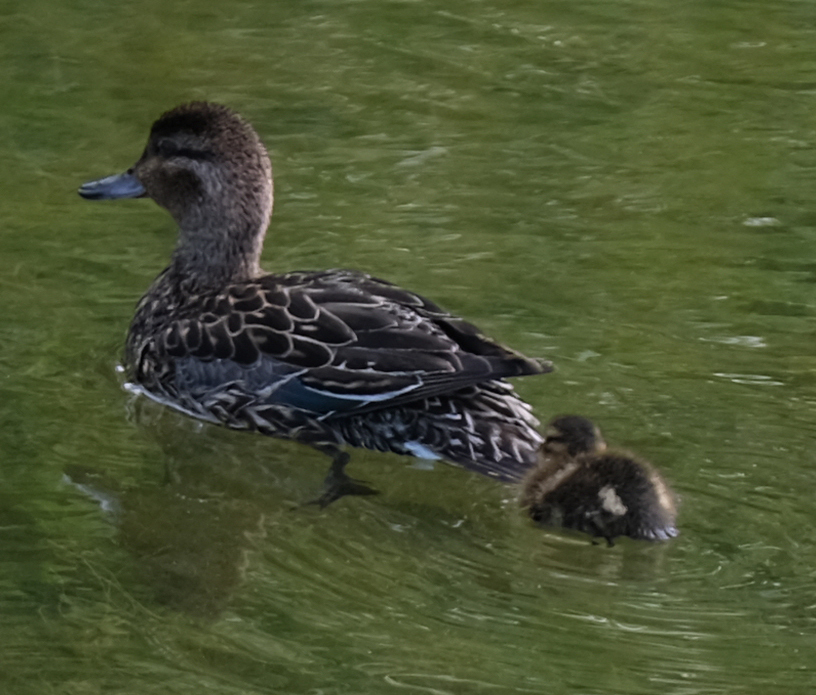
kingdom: Animalia
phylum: Chordata
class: Aves
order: Anseriformes
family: Anatidae
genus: Anas
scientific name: Anas crecca
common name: Eurasian teal
